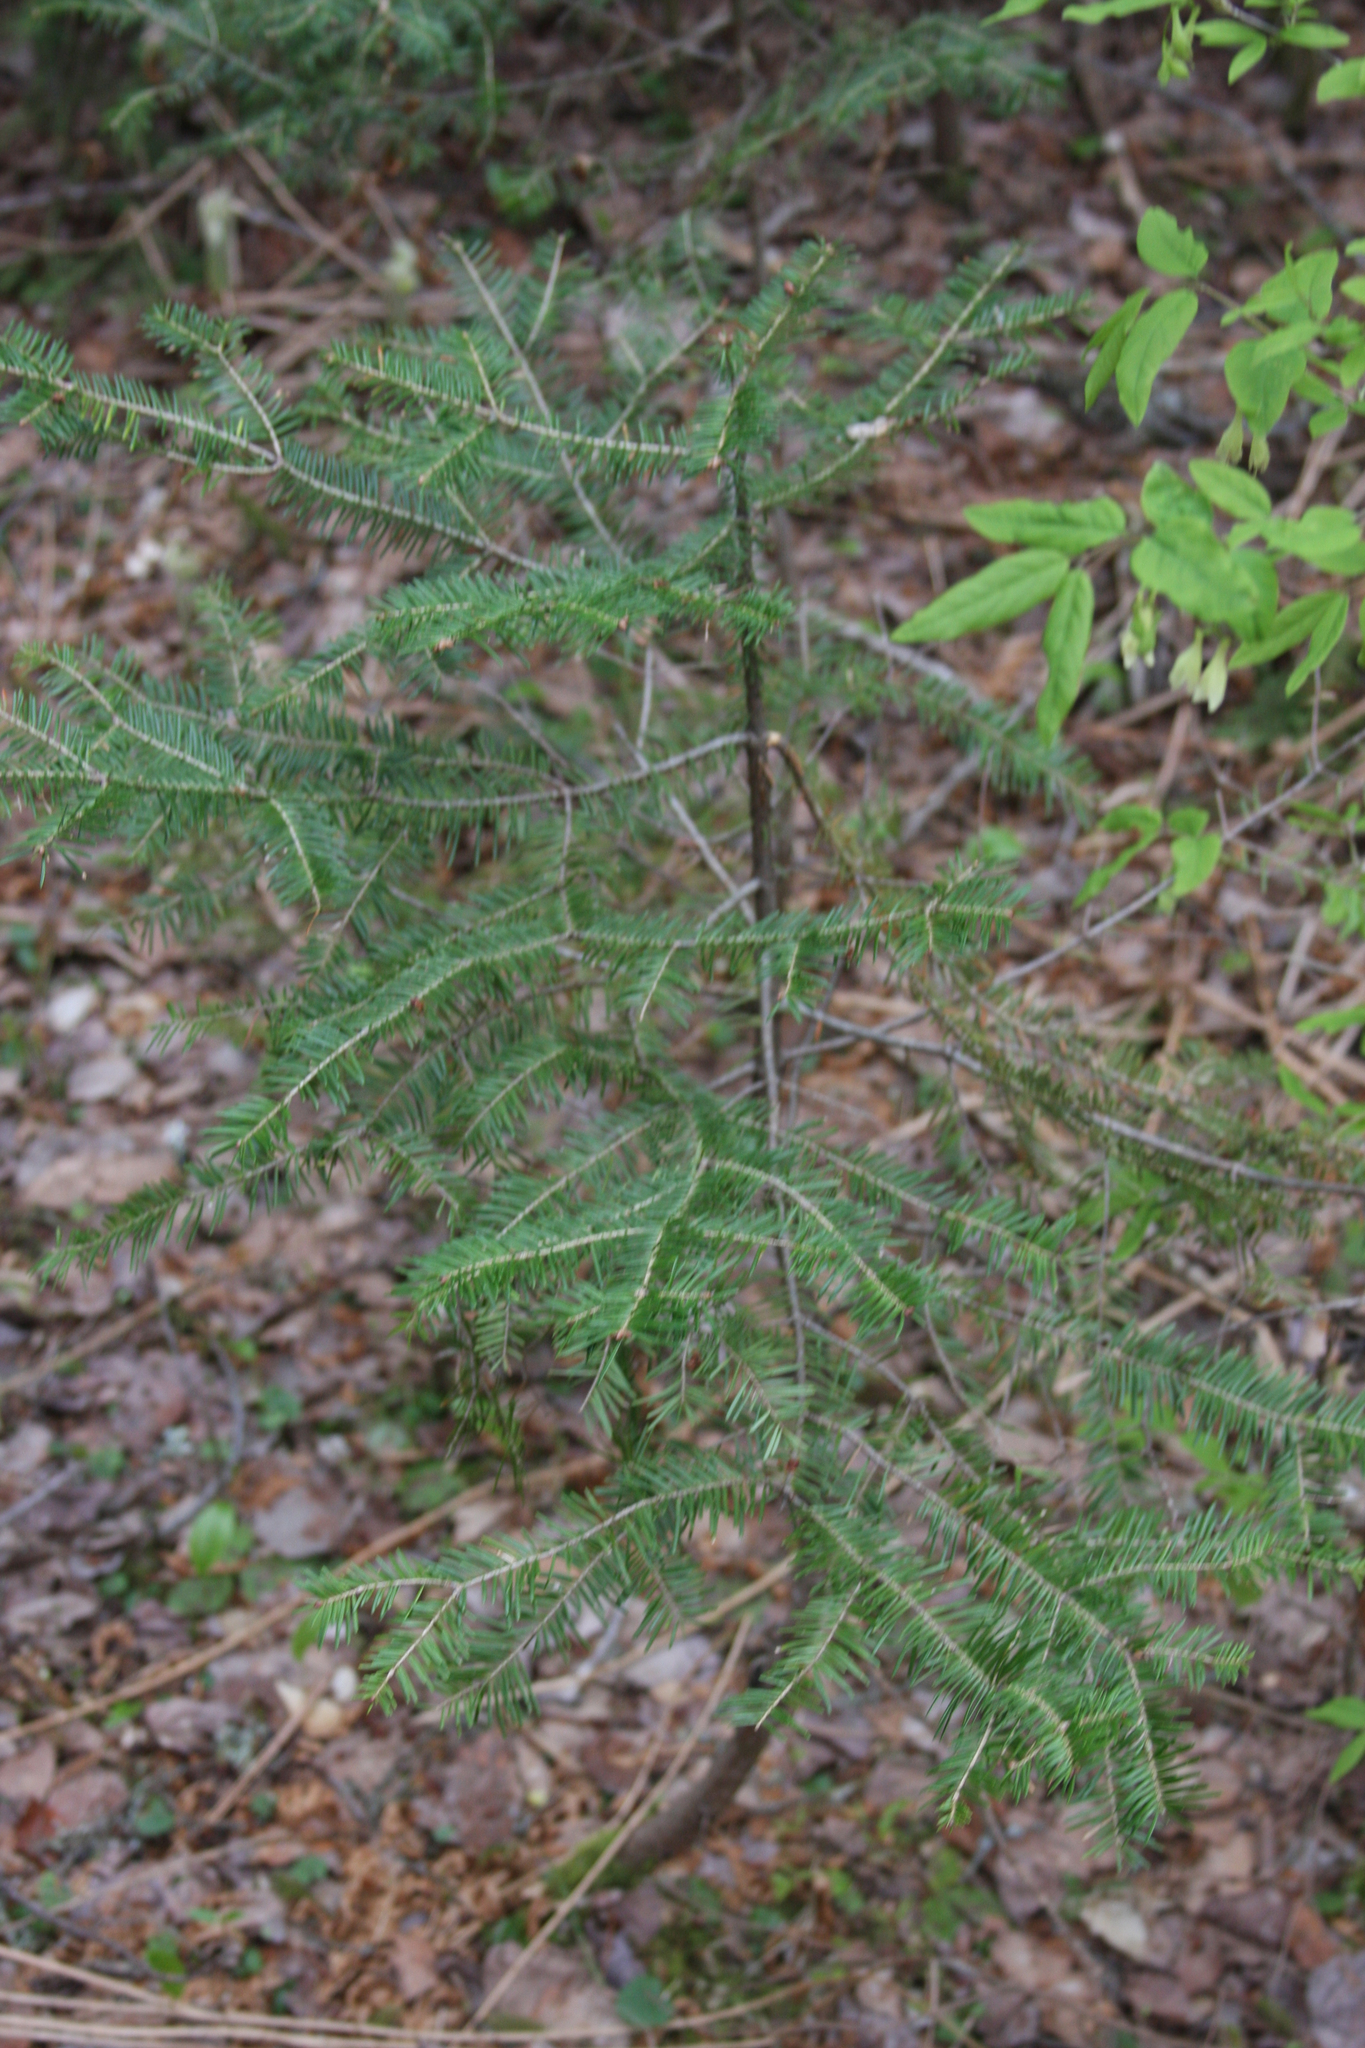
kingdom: Plantae
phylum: Tracheophyta
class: Pinopsida
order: Pinales
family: Pinaceae
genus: Abies
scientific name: Abies balsamea
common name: Balsam fir
